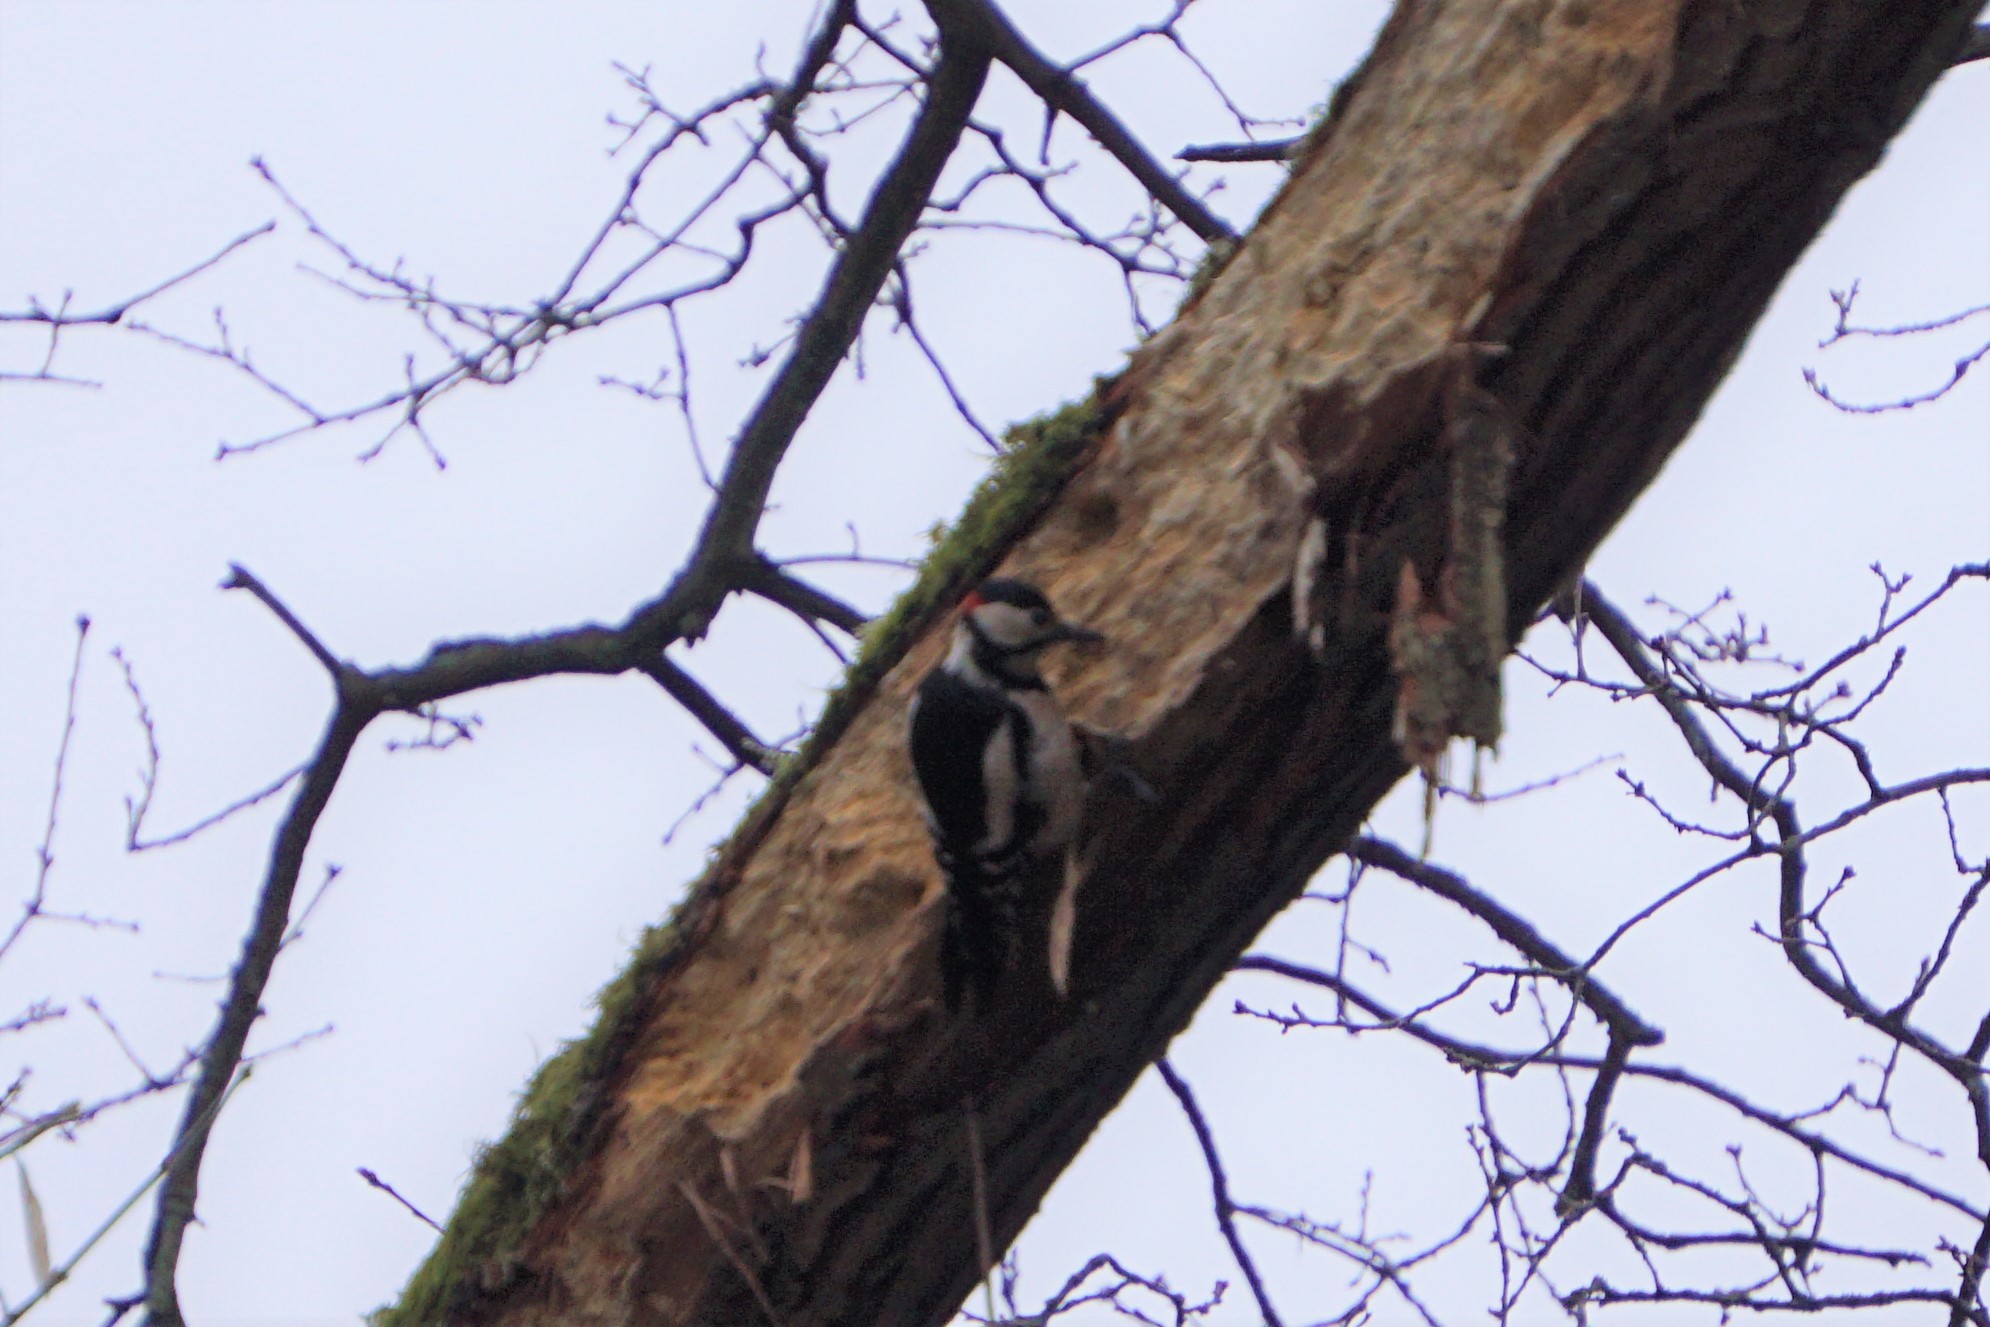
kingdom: Animalia
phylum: Chordata
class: Aves
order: Piciformes
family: Picidae
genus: Dendrocopos
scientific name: Dendrocopos major
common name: Great spotted woodpecker
